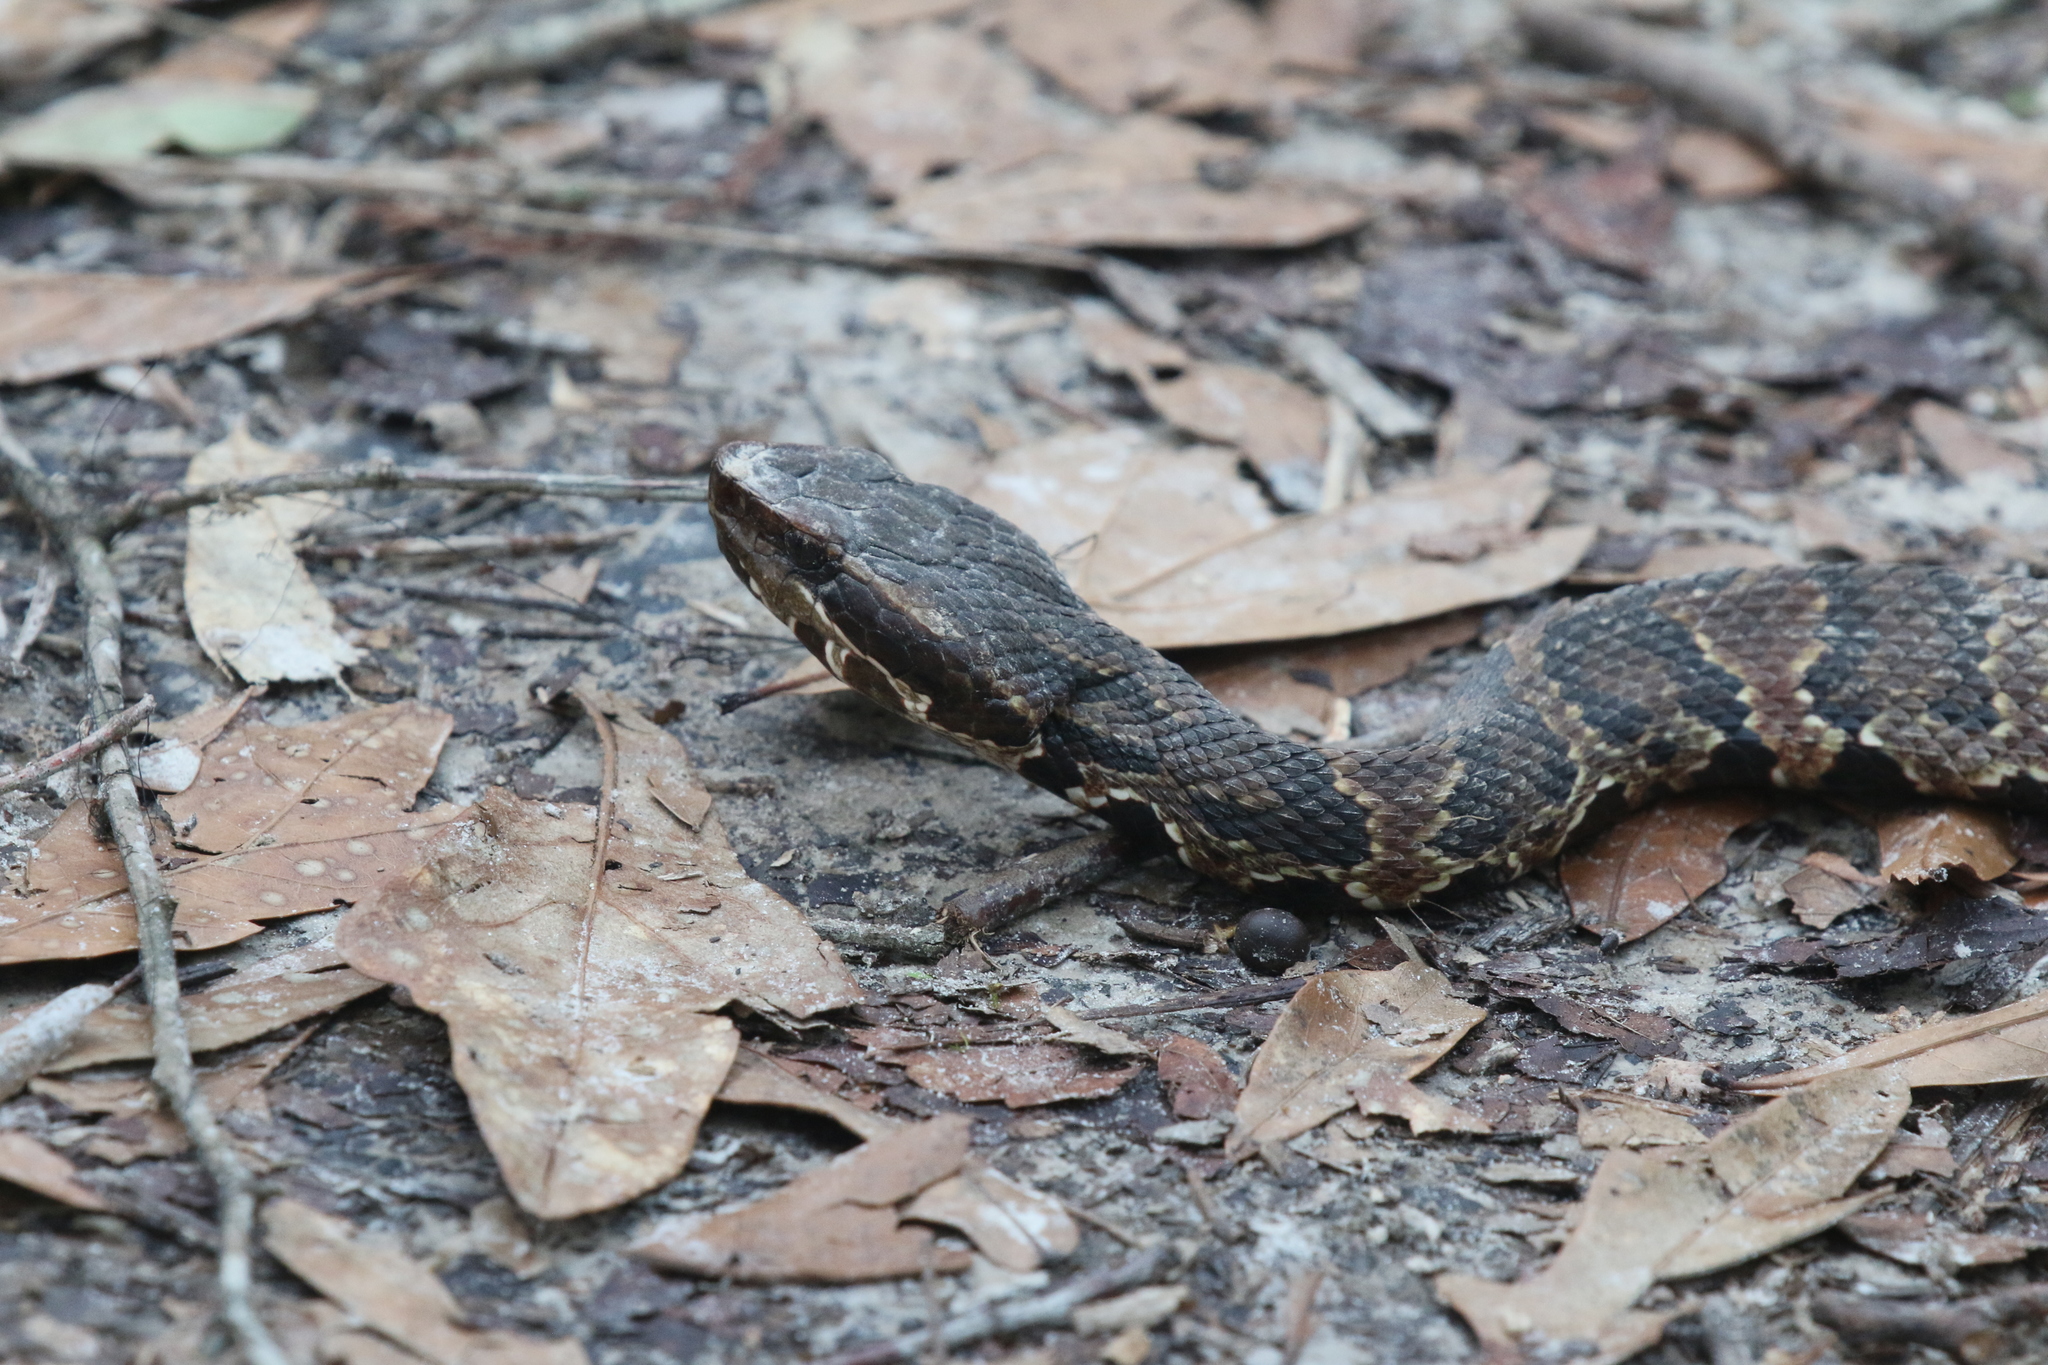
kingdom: Animalia
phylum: Chordata
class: Squamata
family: Viperidae
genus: Agkistrodon
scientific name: Agkistrodon piscivorus
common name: Cottonmouth
